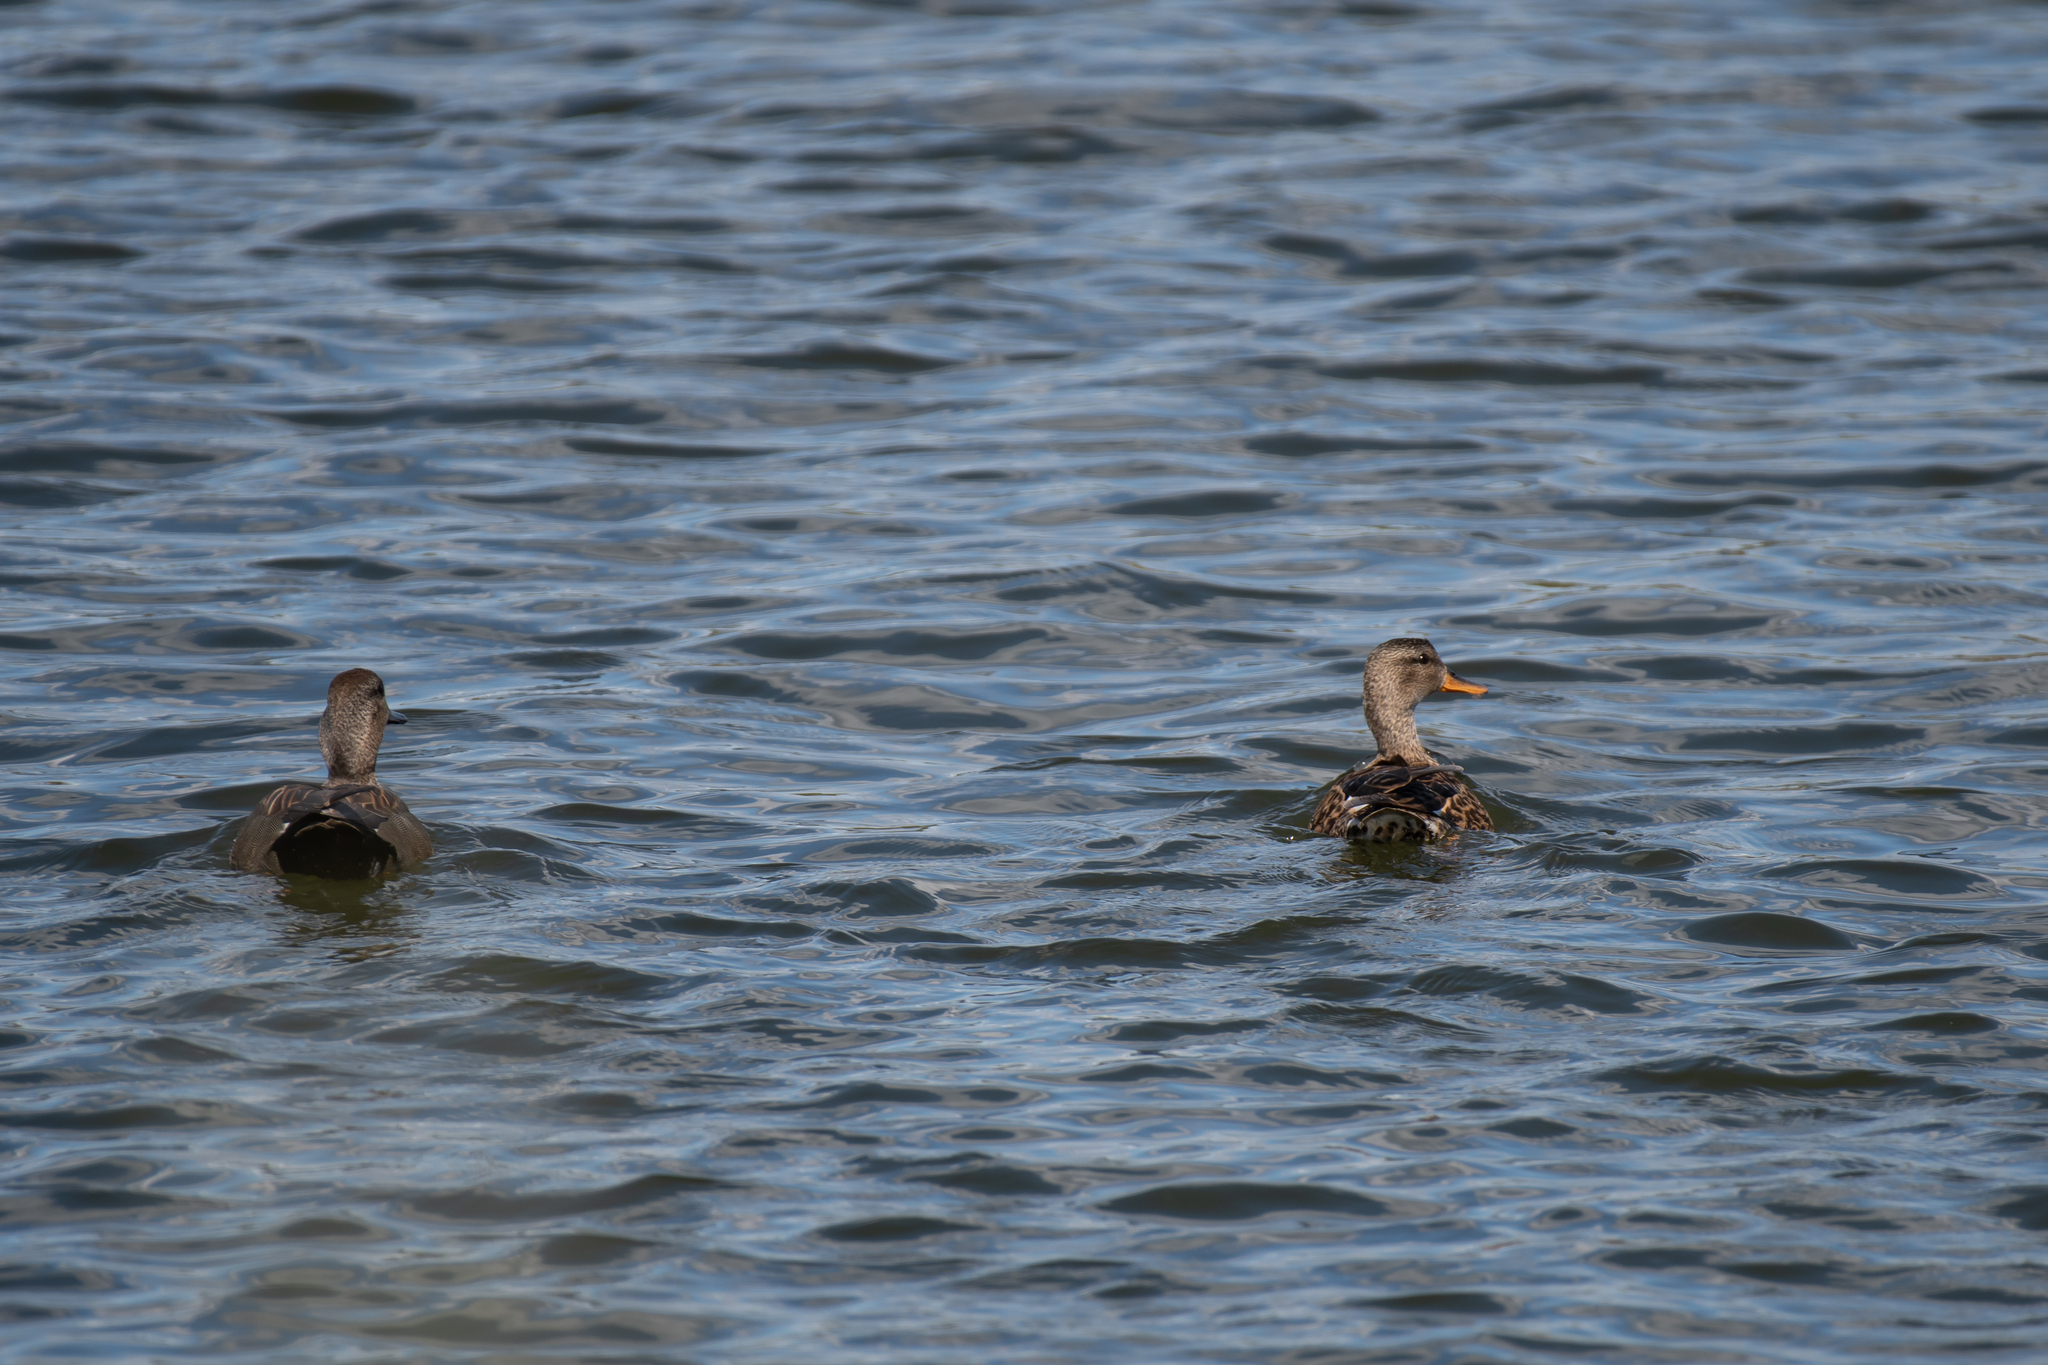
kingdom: Animalia
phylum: Chordata
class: Aves
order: Anseriformes
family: Anatidae
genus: Mareca
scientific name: Mareca strepera
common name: Gadwall
